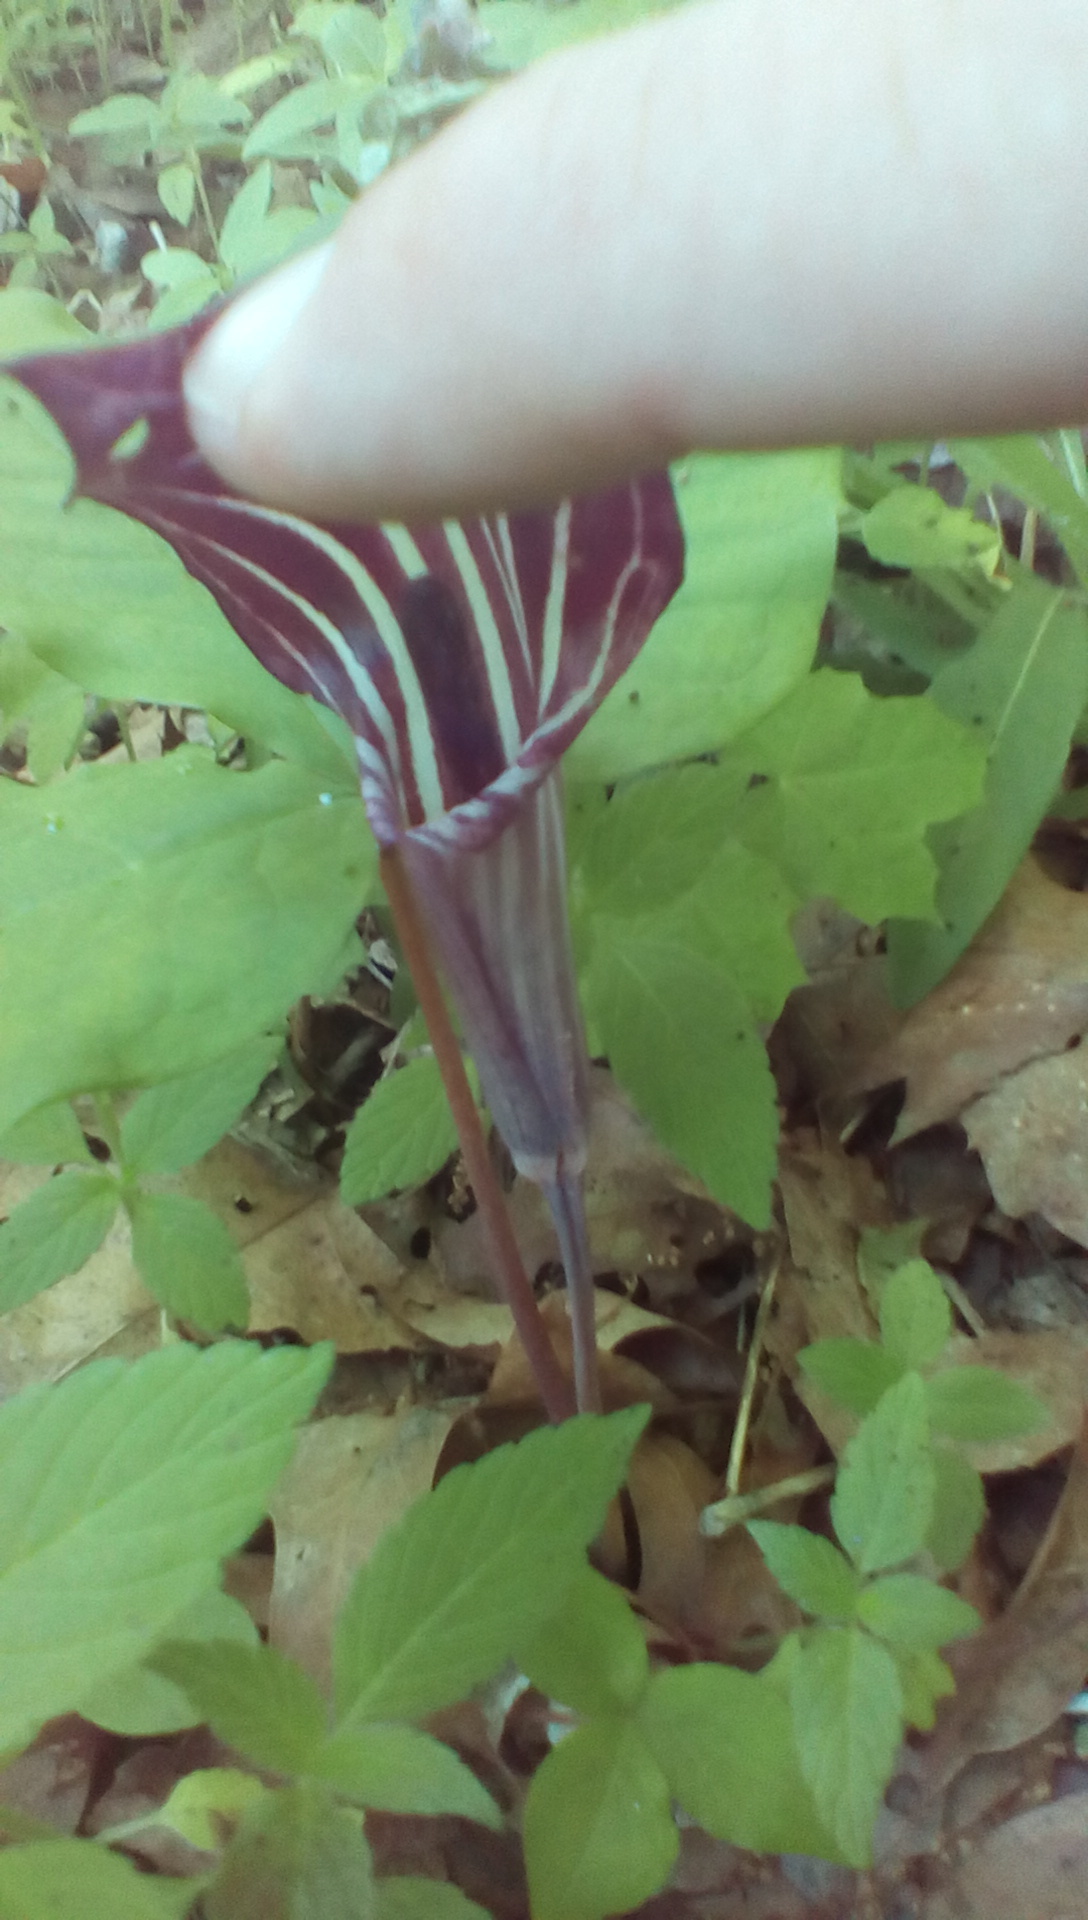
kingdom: Plantae
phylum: Tracheophyta
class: Liliopsida
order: Alismatales
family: Araceae
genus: Arisaema
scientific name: Arisaema triphyllum
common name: Jack-in-the-pulpit
